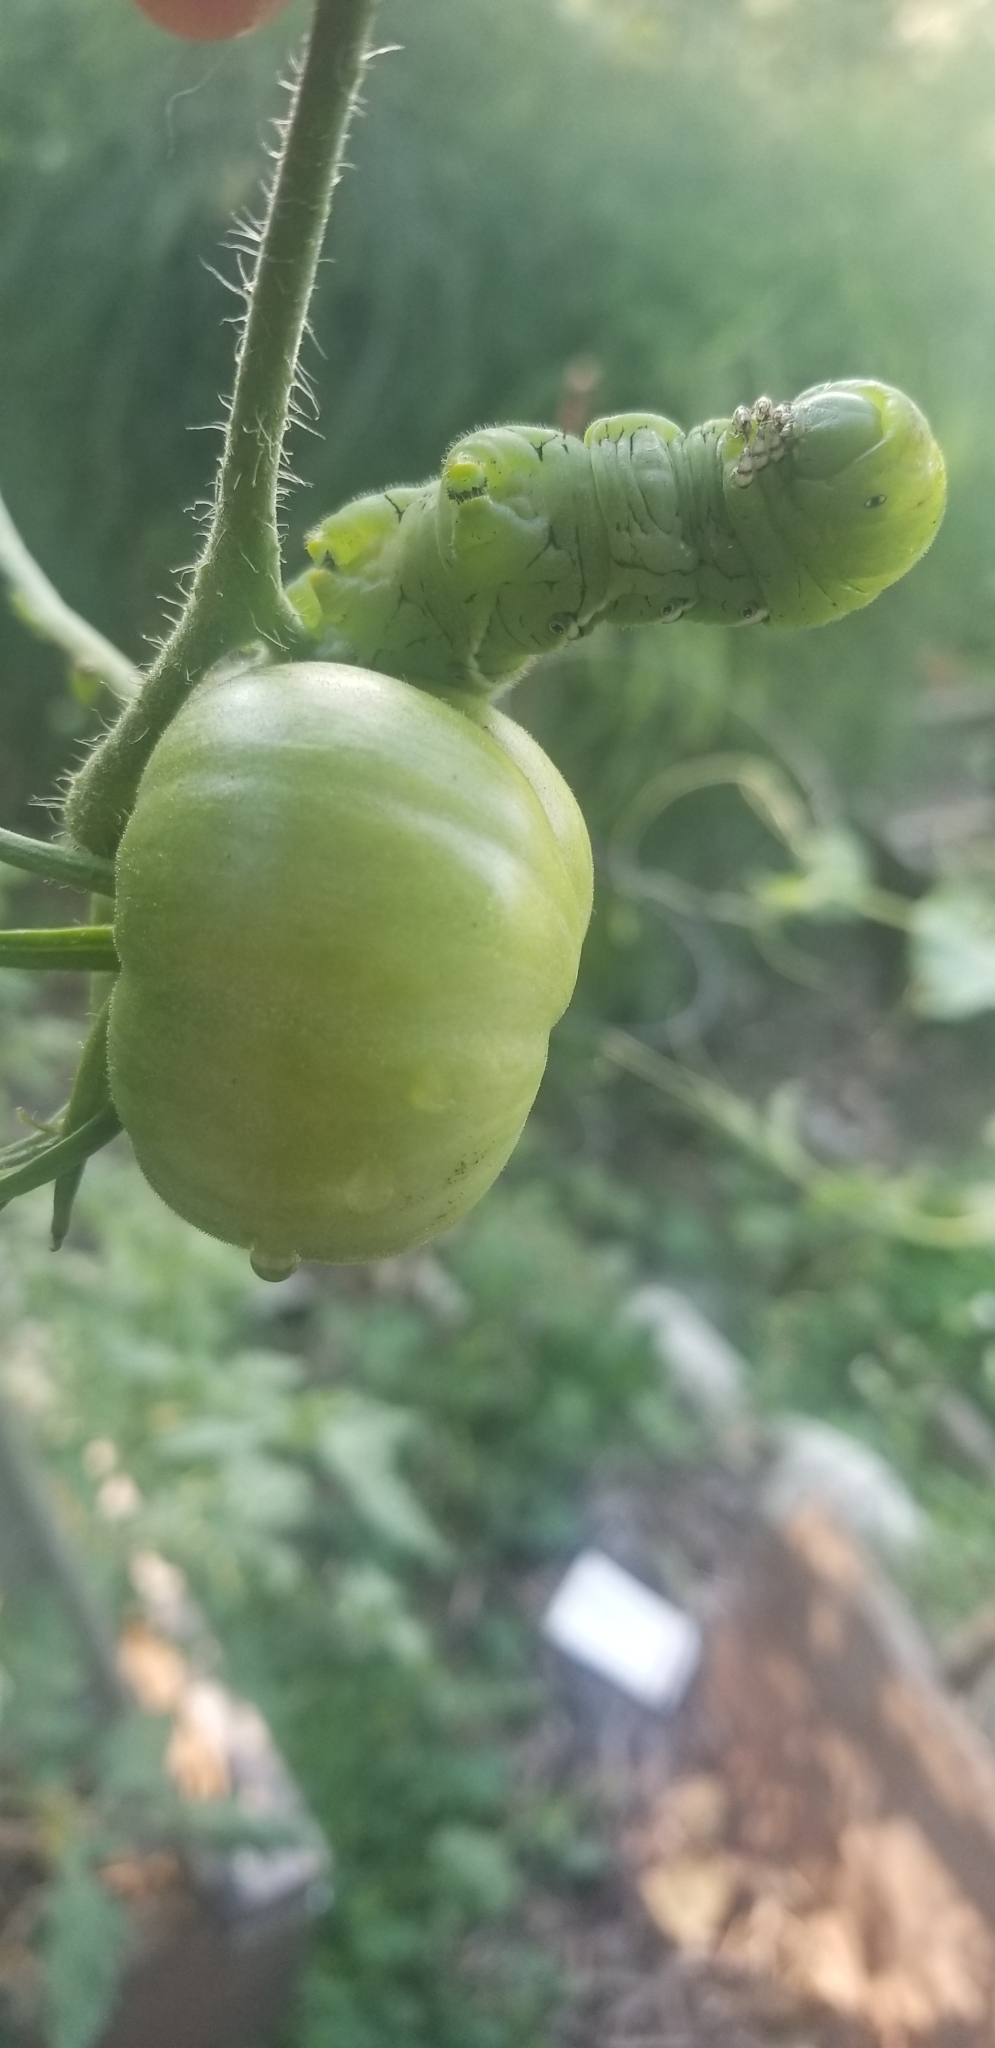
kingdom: Animalia
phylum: Arthropoda
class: Insecta
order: Lepidoptera
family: Sphingidae
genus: Manduca
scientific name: Manduca sexta
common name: Carolina sphinx
